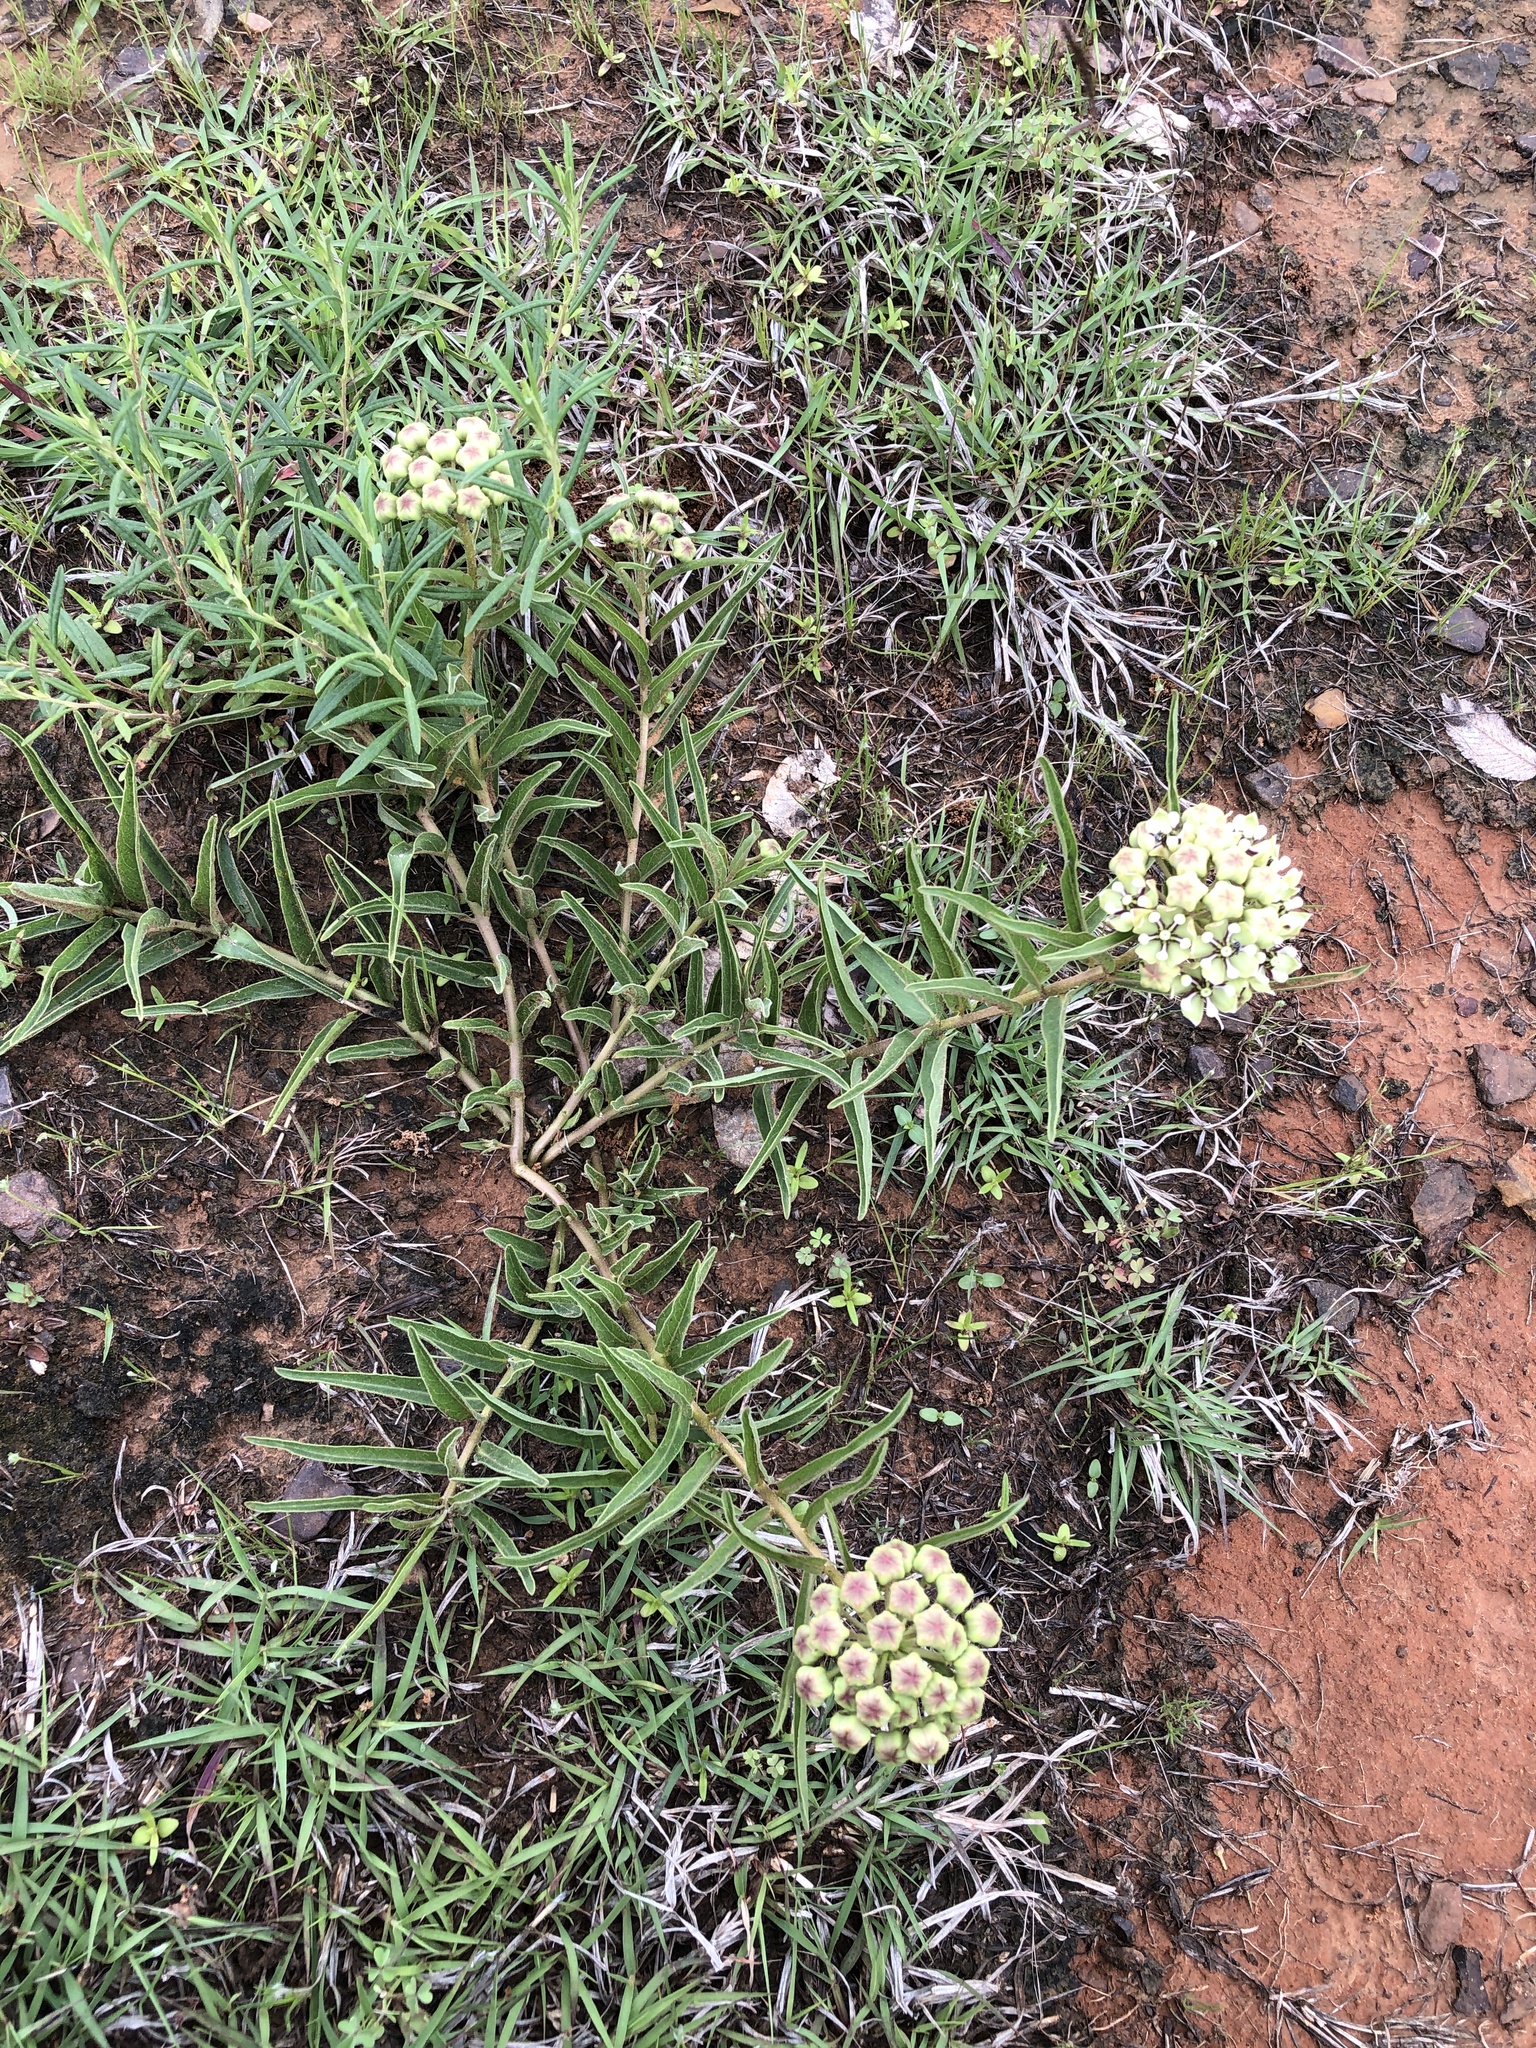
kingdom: Plantae
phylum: Tracheophyta
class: Magnoliopsida
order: Gentianales
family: Apocynaceae
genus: Asclepias
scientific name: Asclepias asperula
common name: Antelope horns
